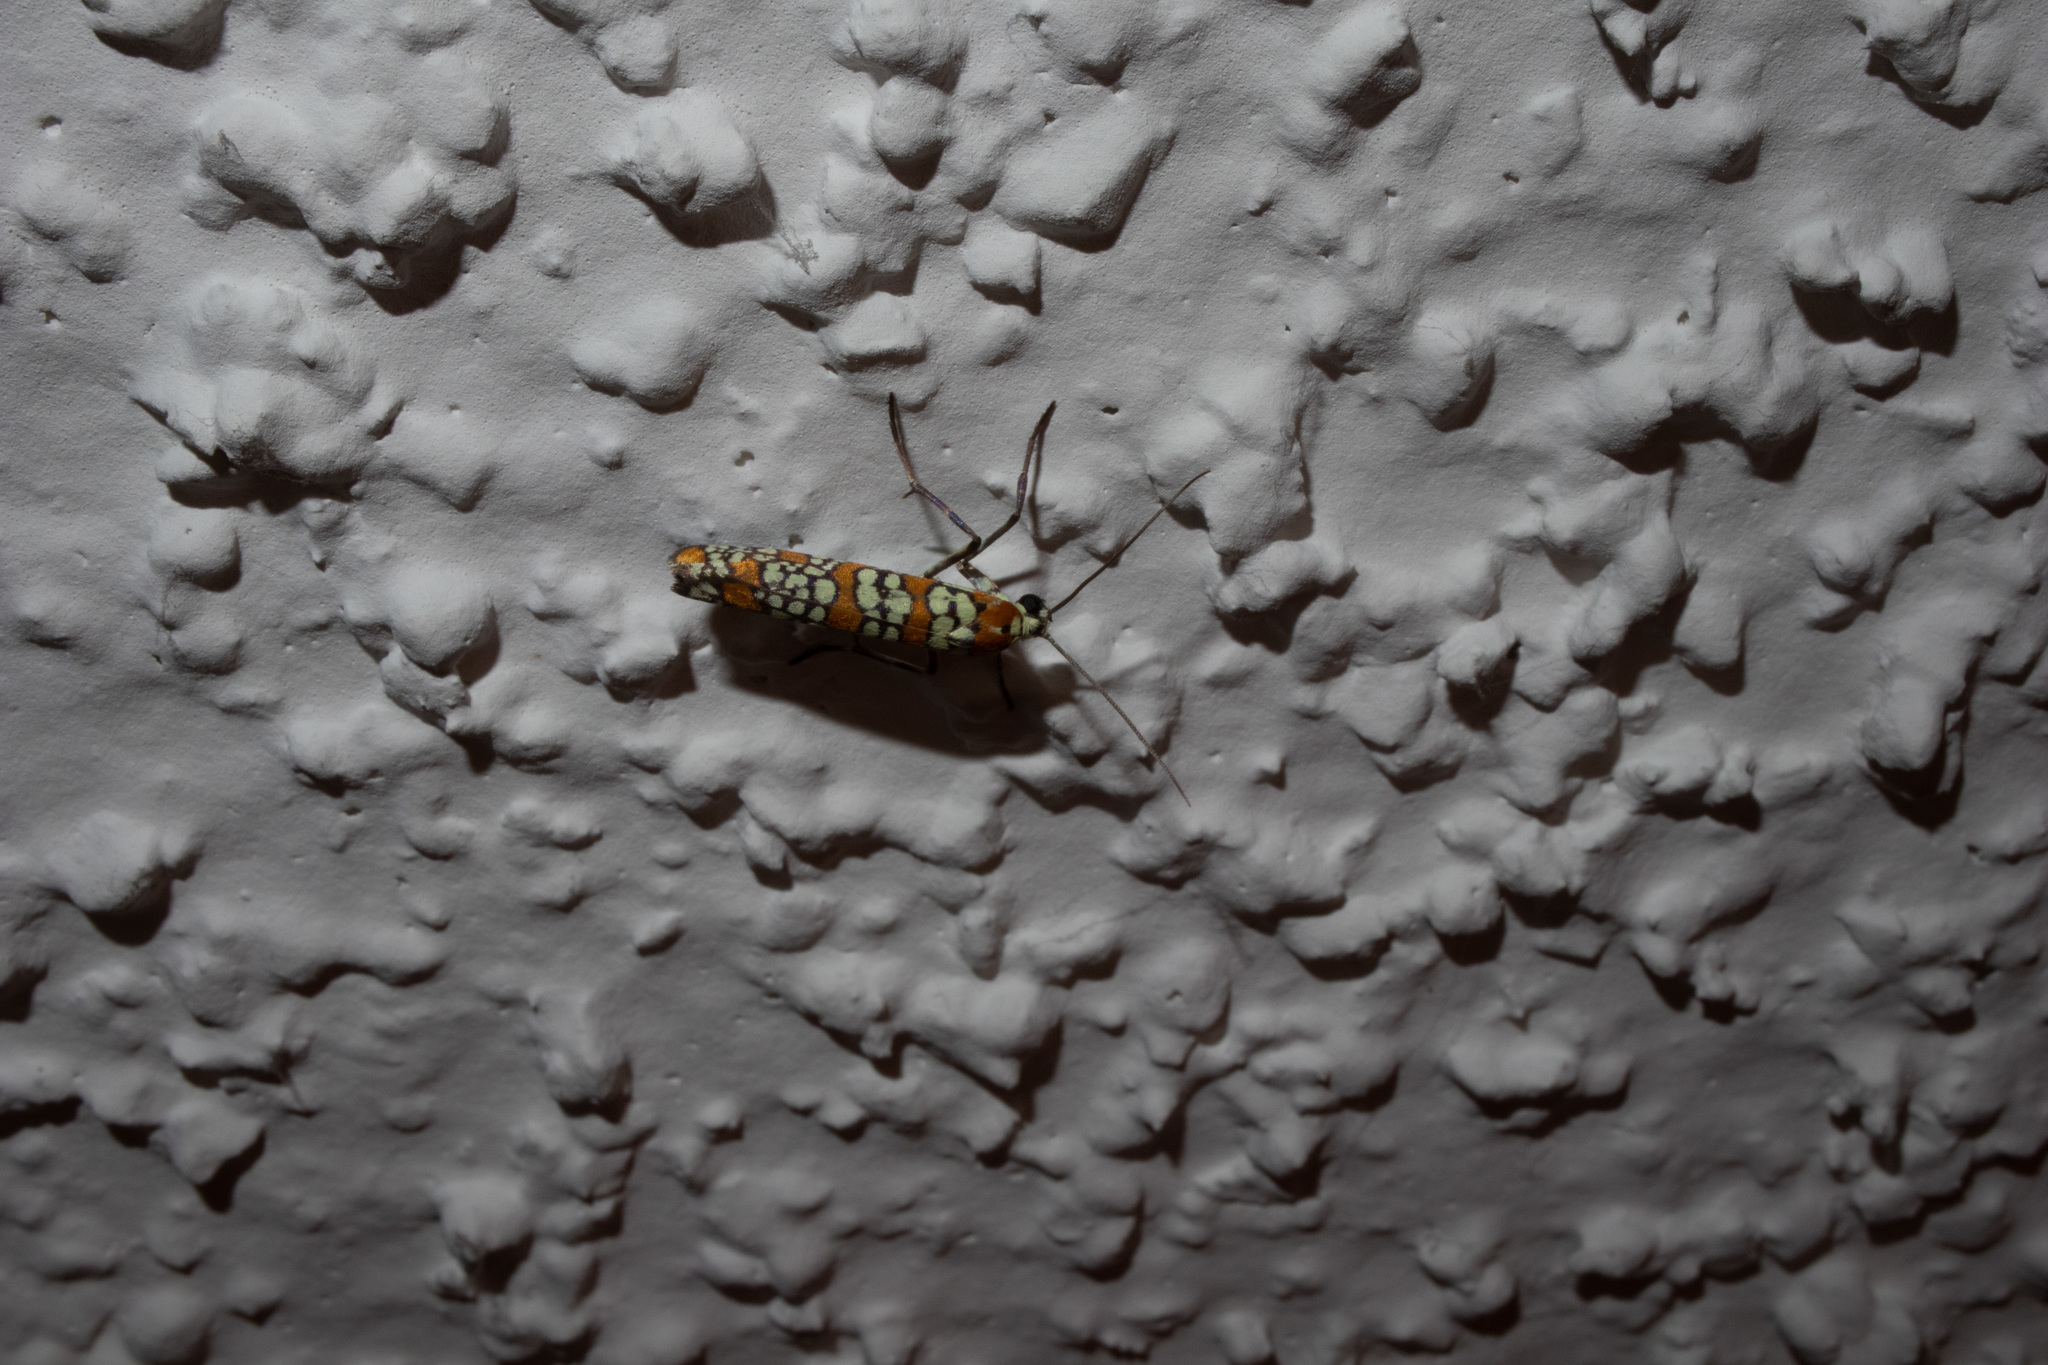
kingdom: Animalia
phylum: Arthropoda
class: Insecta
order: Lepidoptera
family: Attevidae
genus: Atteva
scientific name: Atteva punctella
